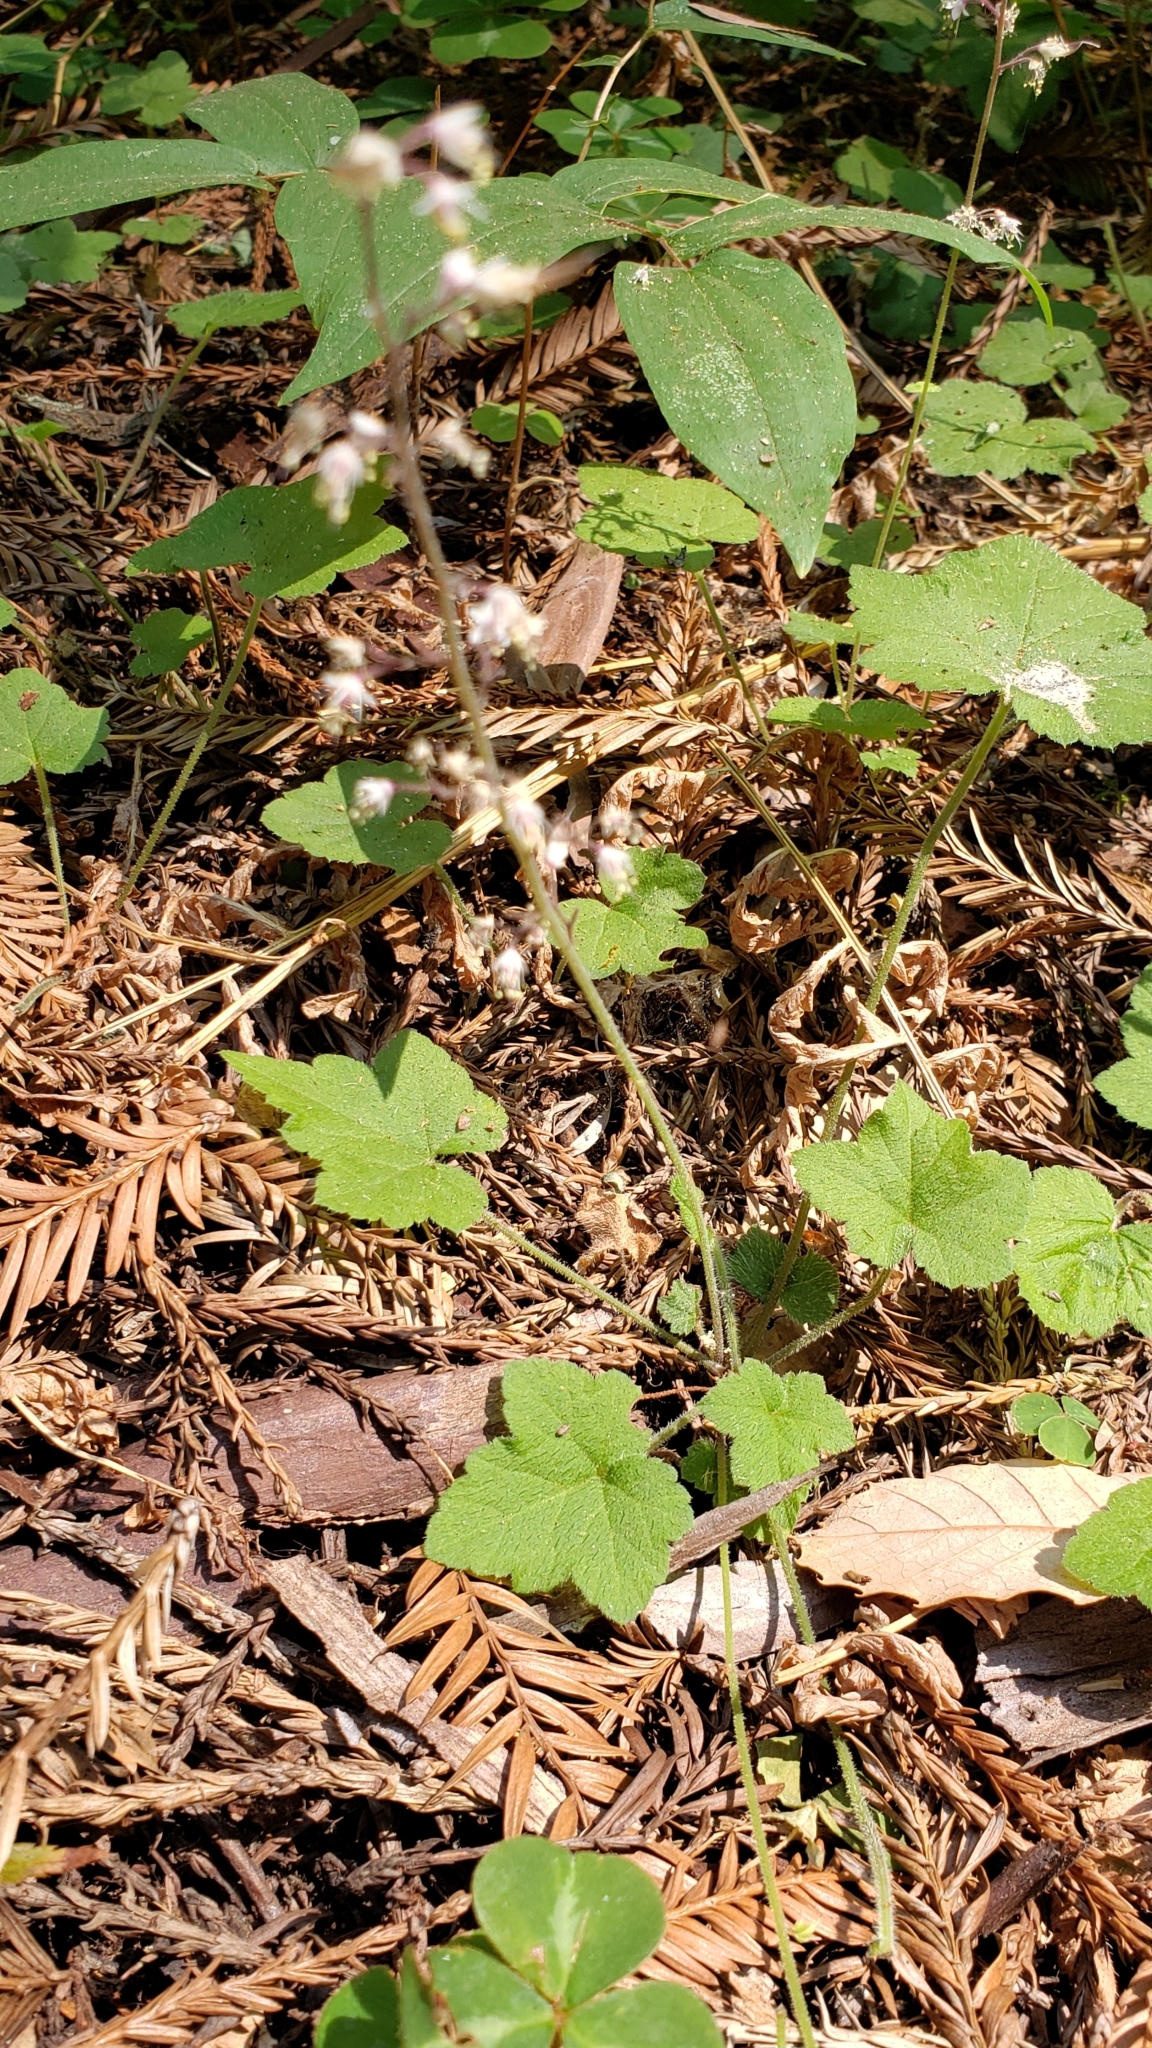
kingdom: Plantae
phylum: Tracheophyta
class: Magnoliopsida
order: Saxifragales
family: Saxifragaceae
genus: Tiarella
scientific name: Tiarella trifoliata
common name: Sugar-scoop
